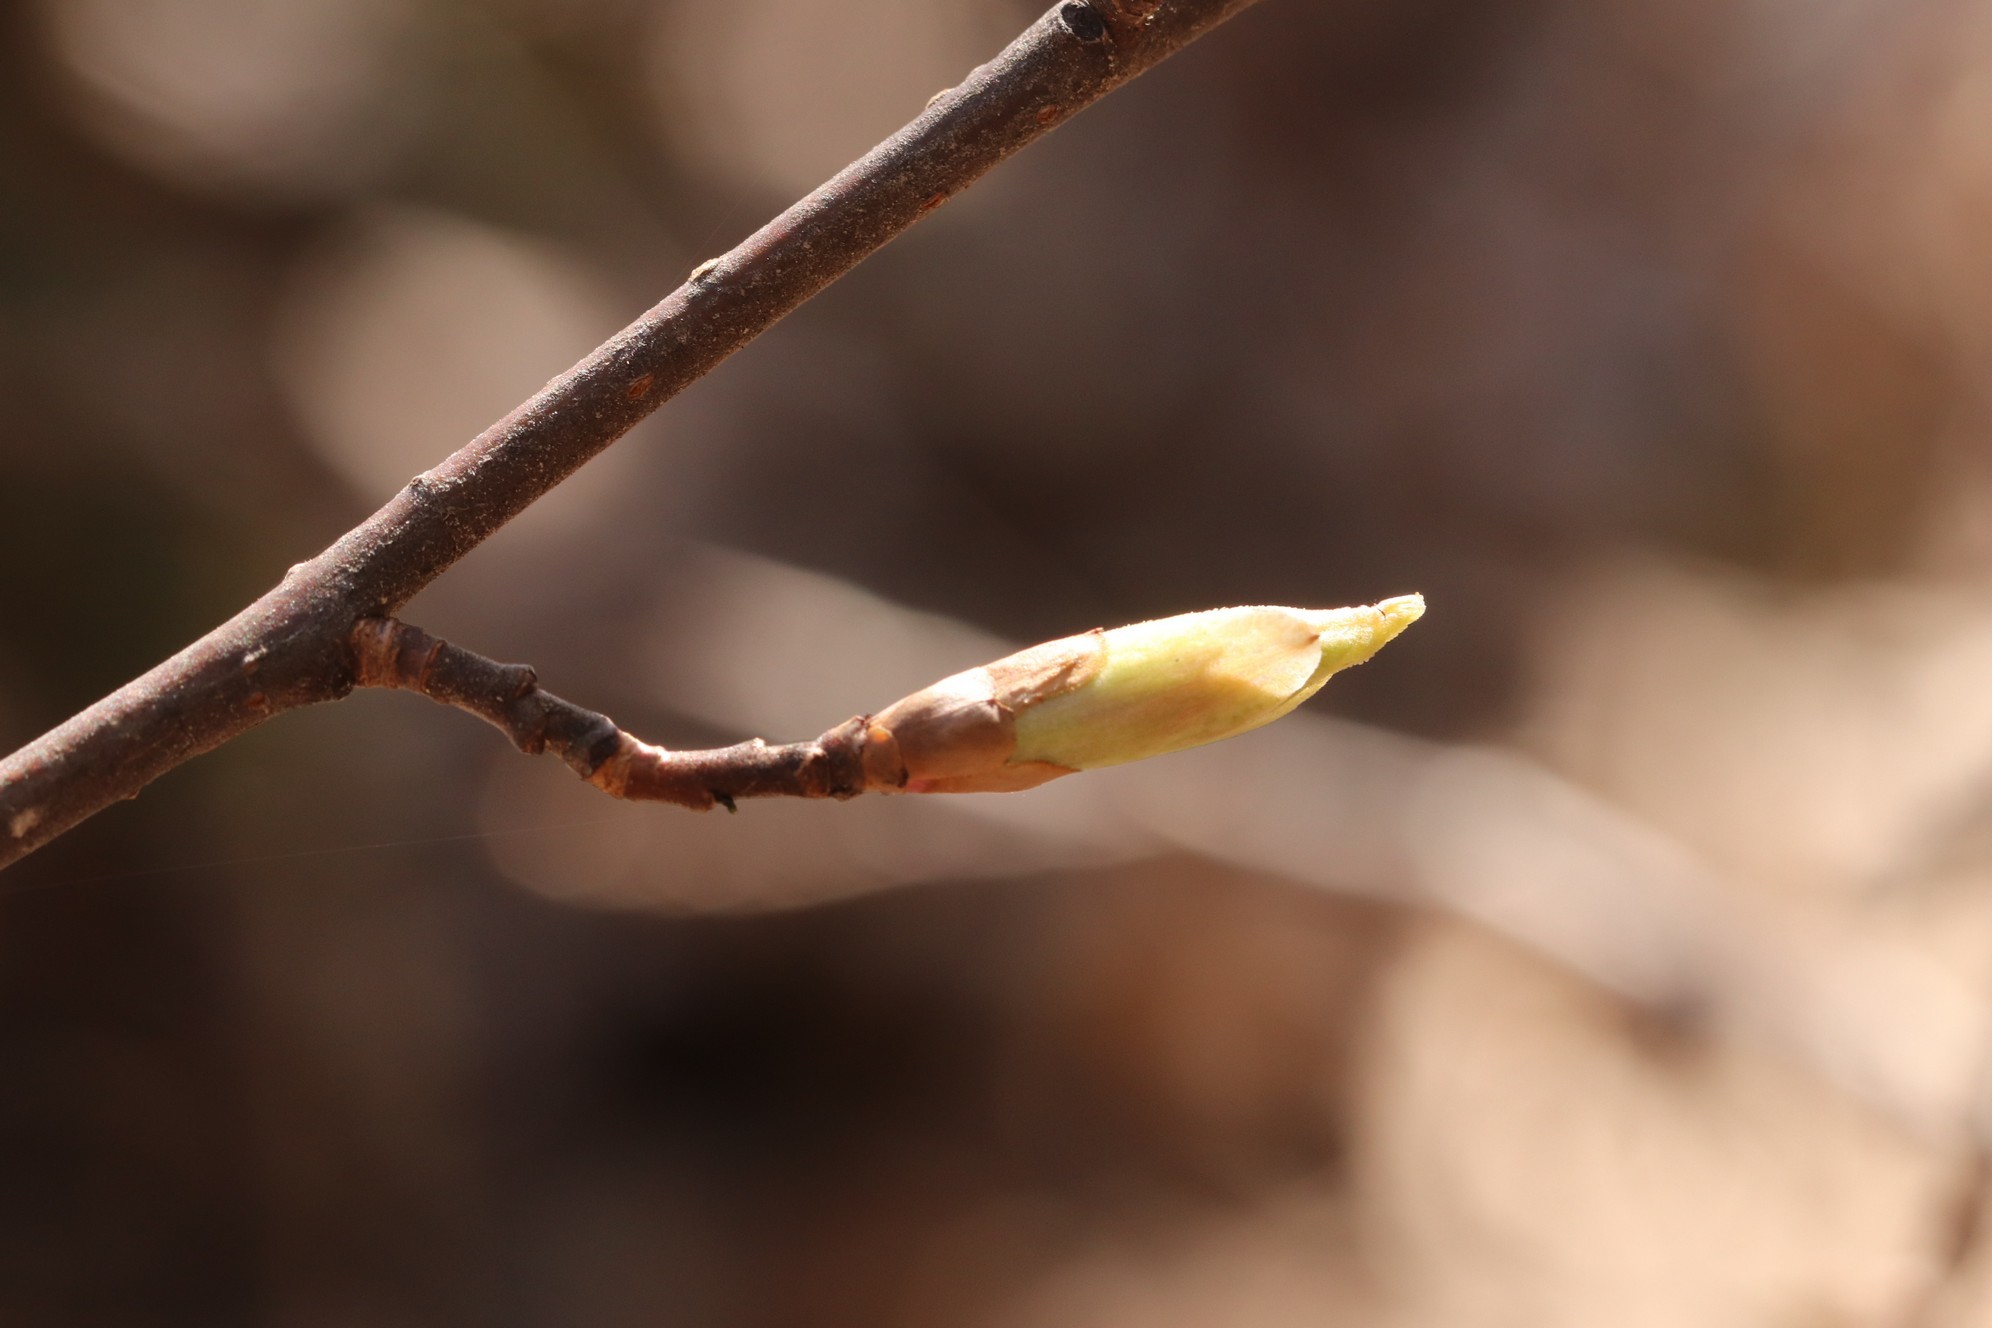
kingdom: Plantae
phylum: Tracheophyta
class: Magnoliopsida
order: Rosales
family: Rosaceae
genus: Prunus
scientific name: Prunus padus
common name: Bird cherry
